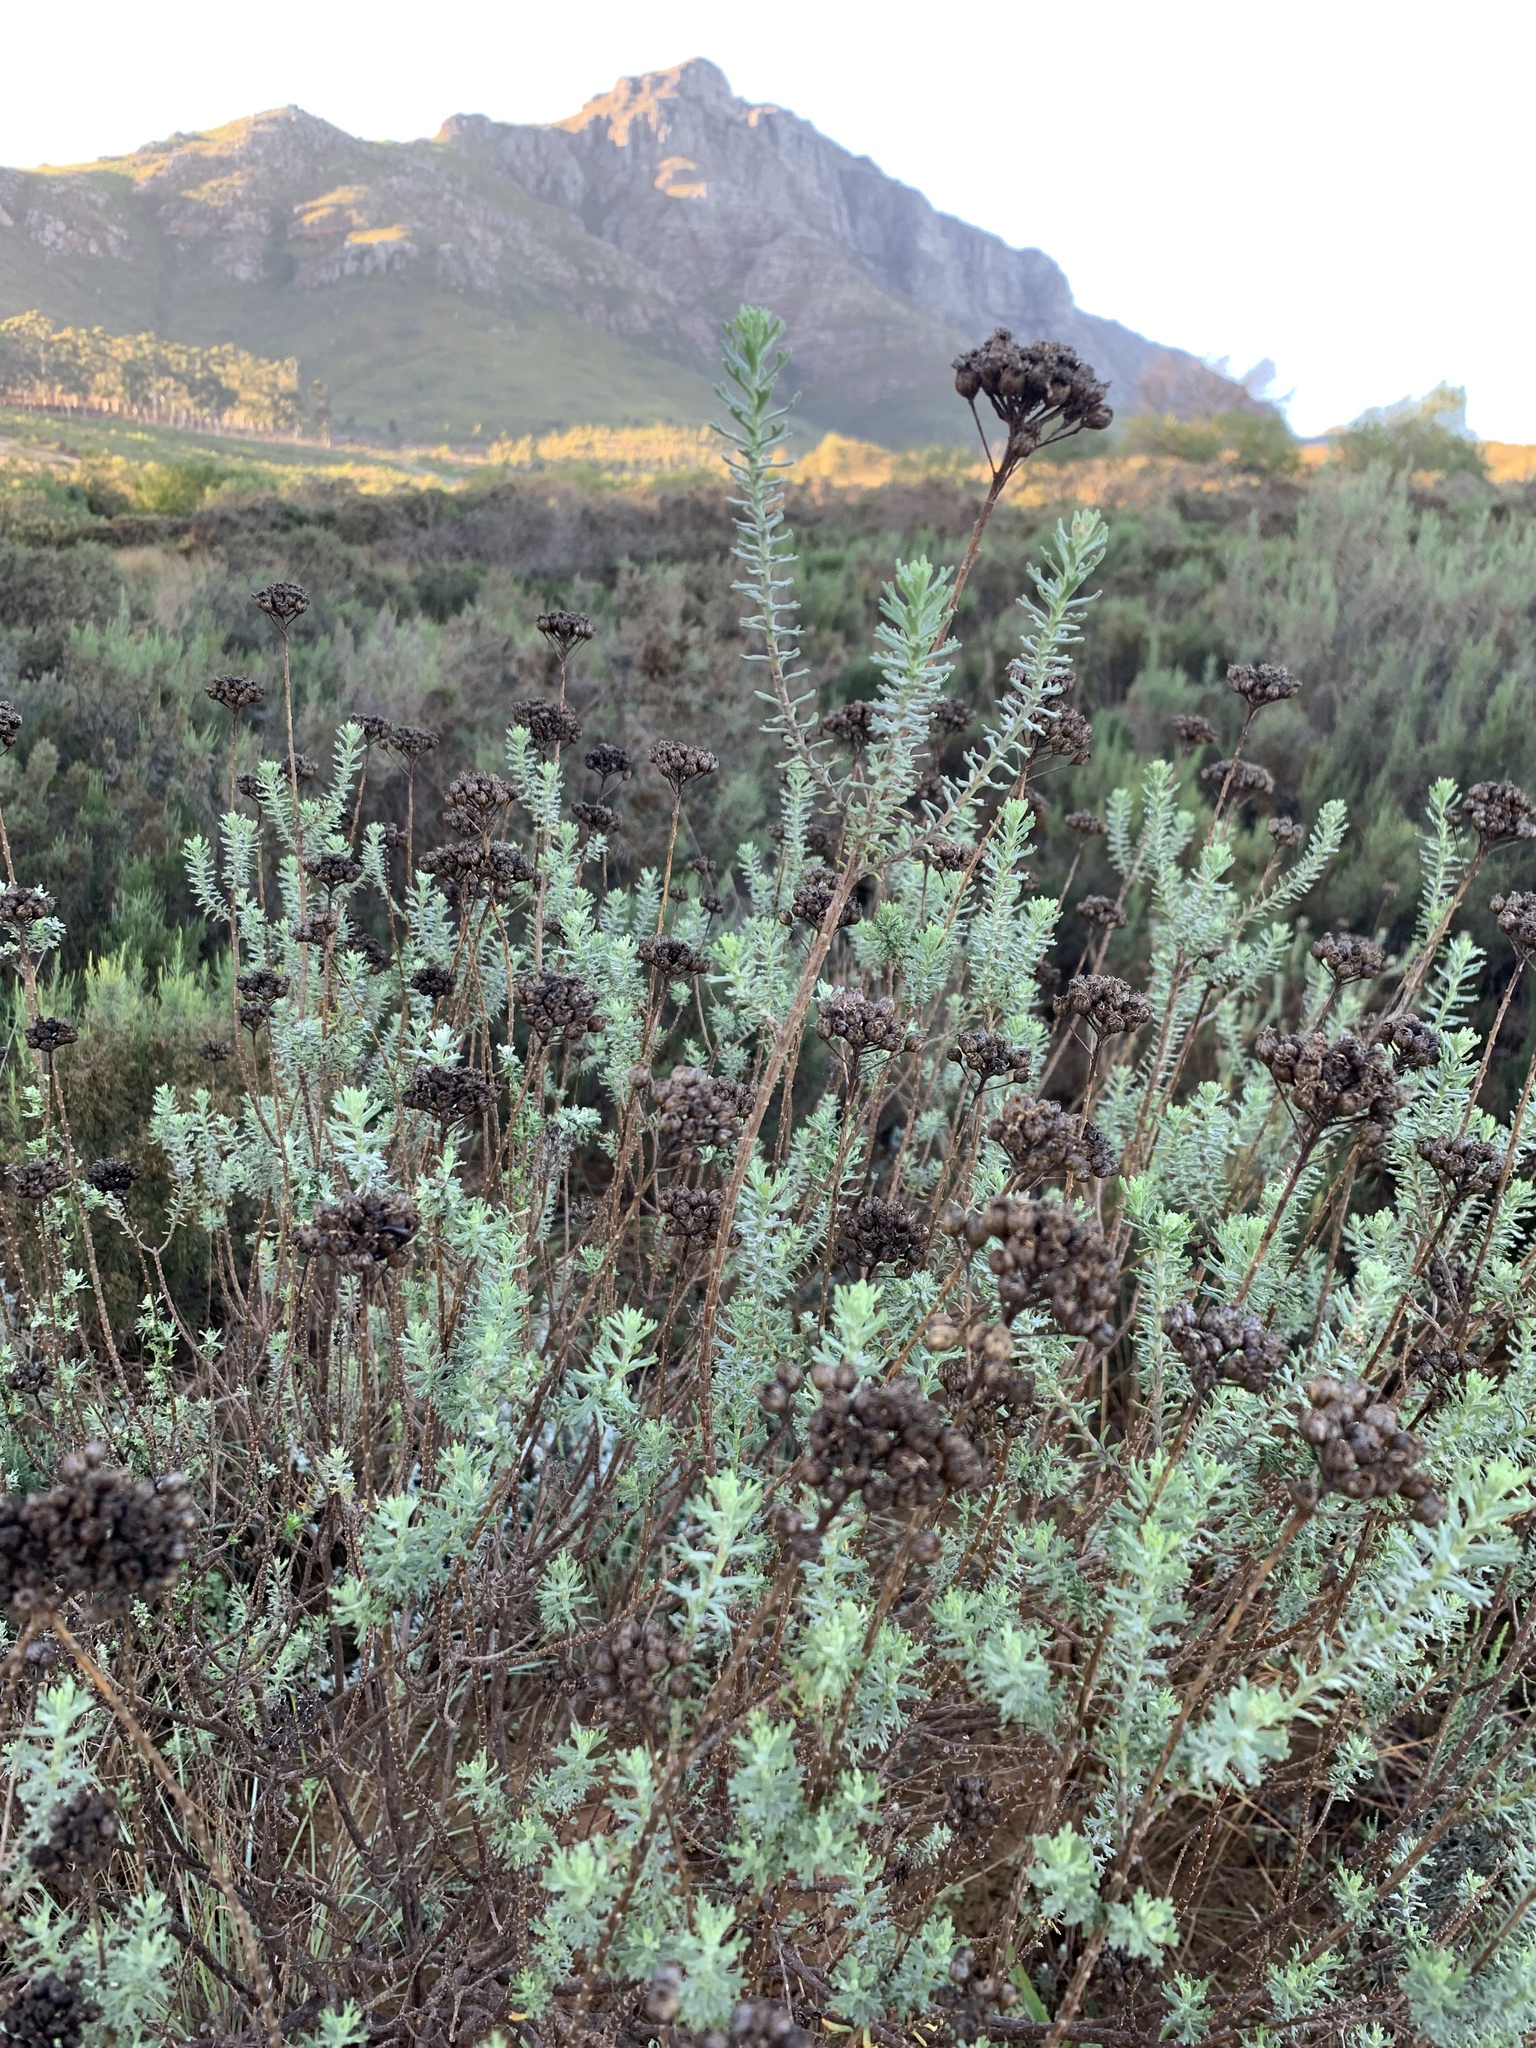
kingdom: Plantae
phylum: Tracheophyta
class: Magnoliopsida
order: Asterales
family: Asteraceae
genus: Athanasia
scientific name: Athanasia trifurcata
